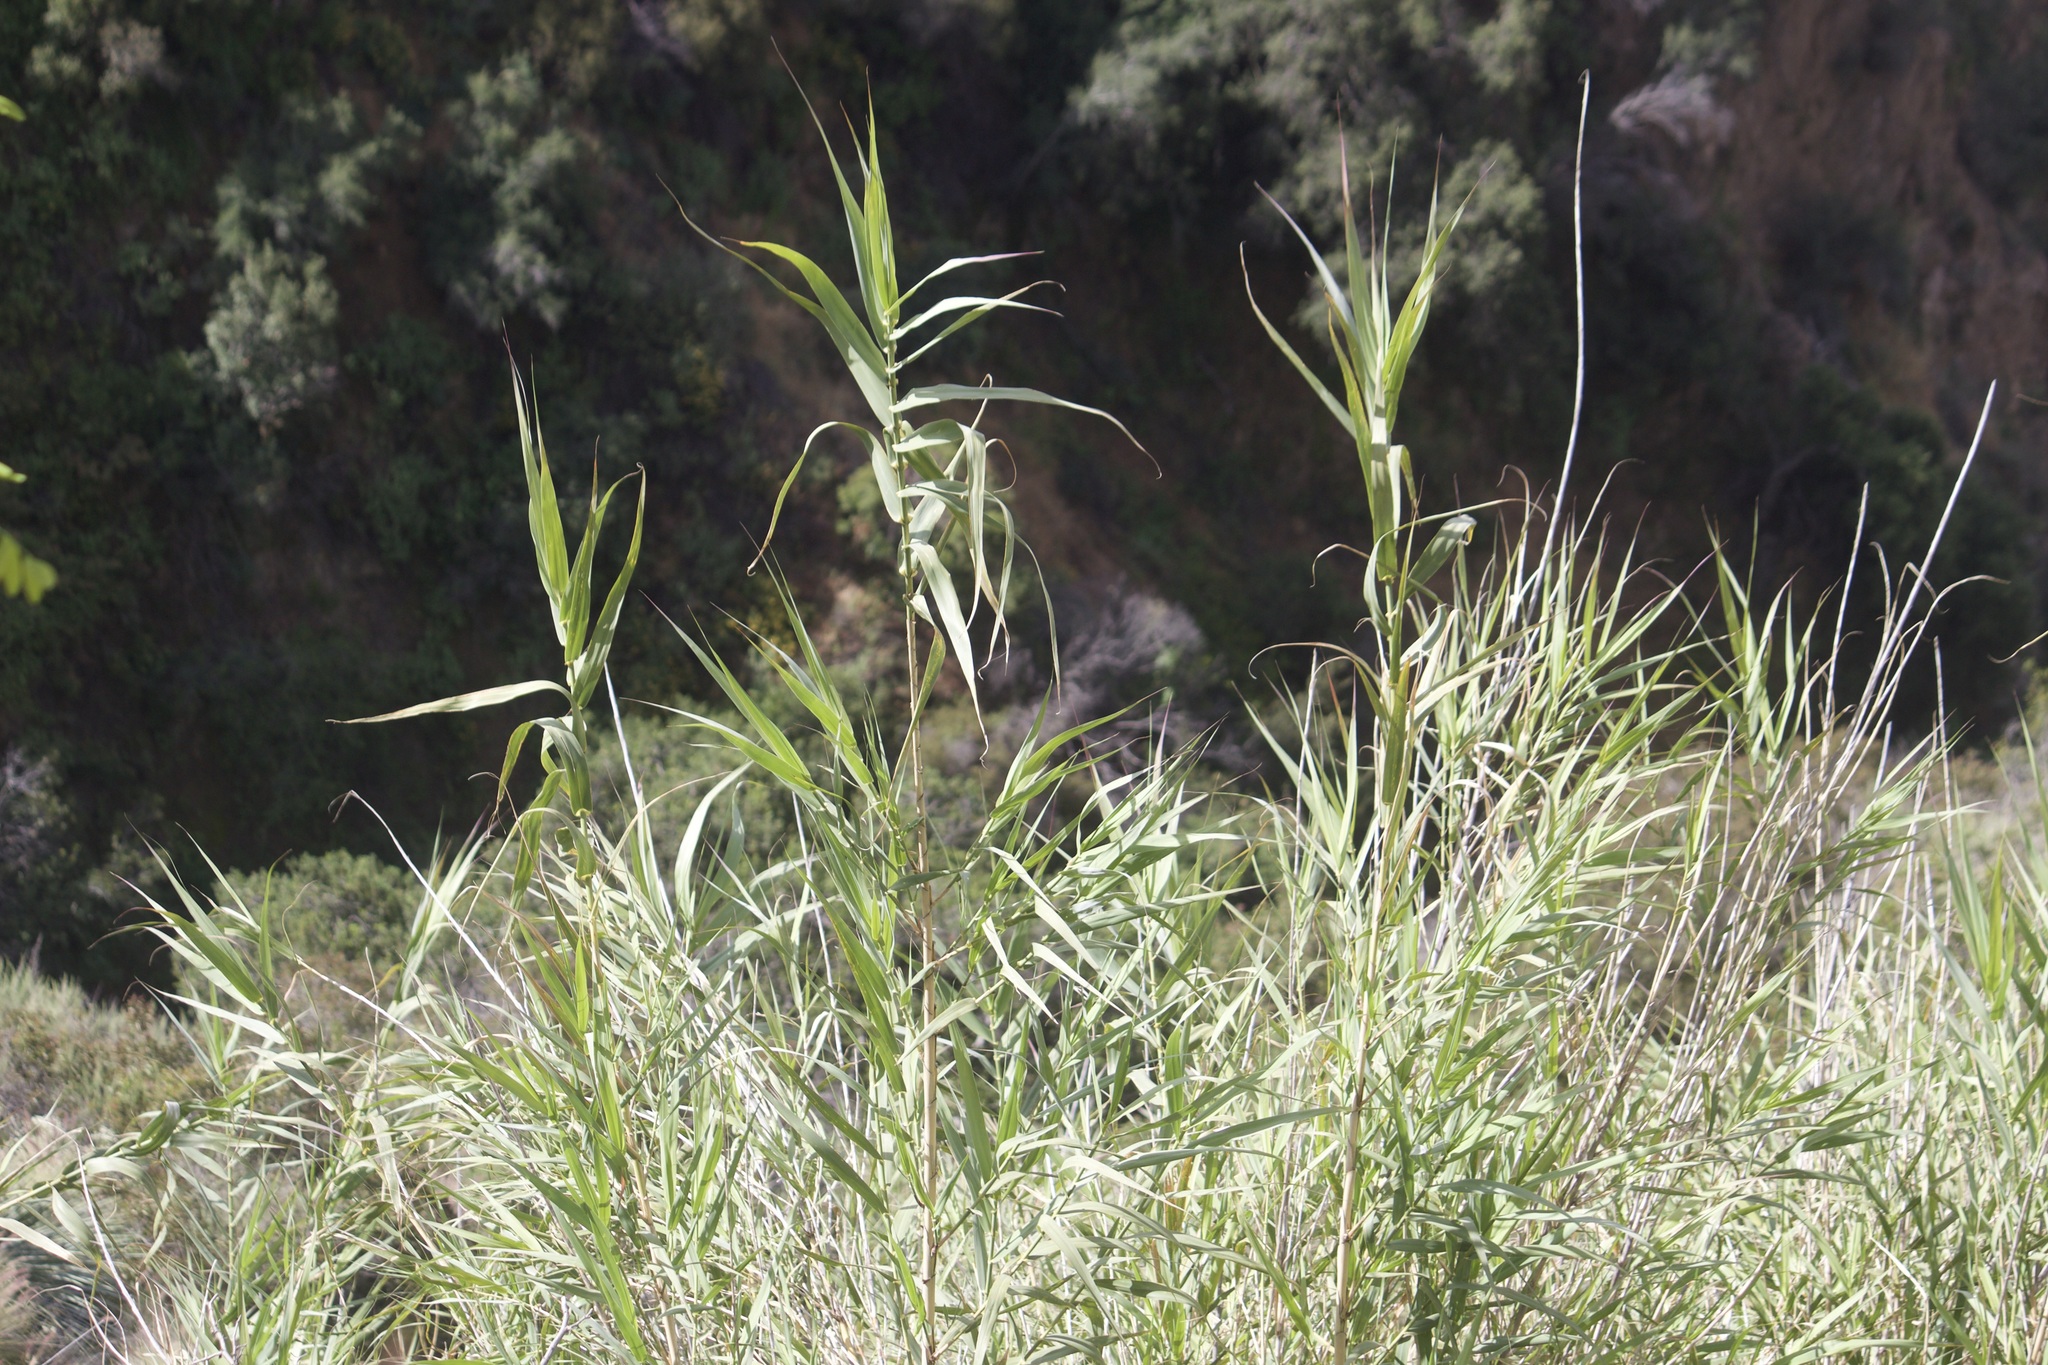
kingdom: Plantae
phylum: Tracheophyta
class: Liliopsida
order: Poales
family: Poaceae
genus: Arundo
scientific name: Arundo donax
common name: Giant reed
